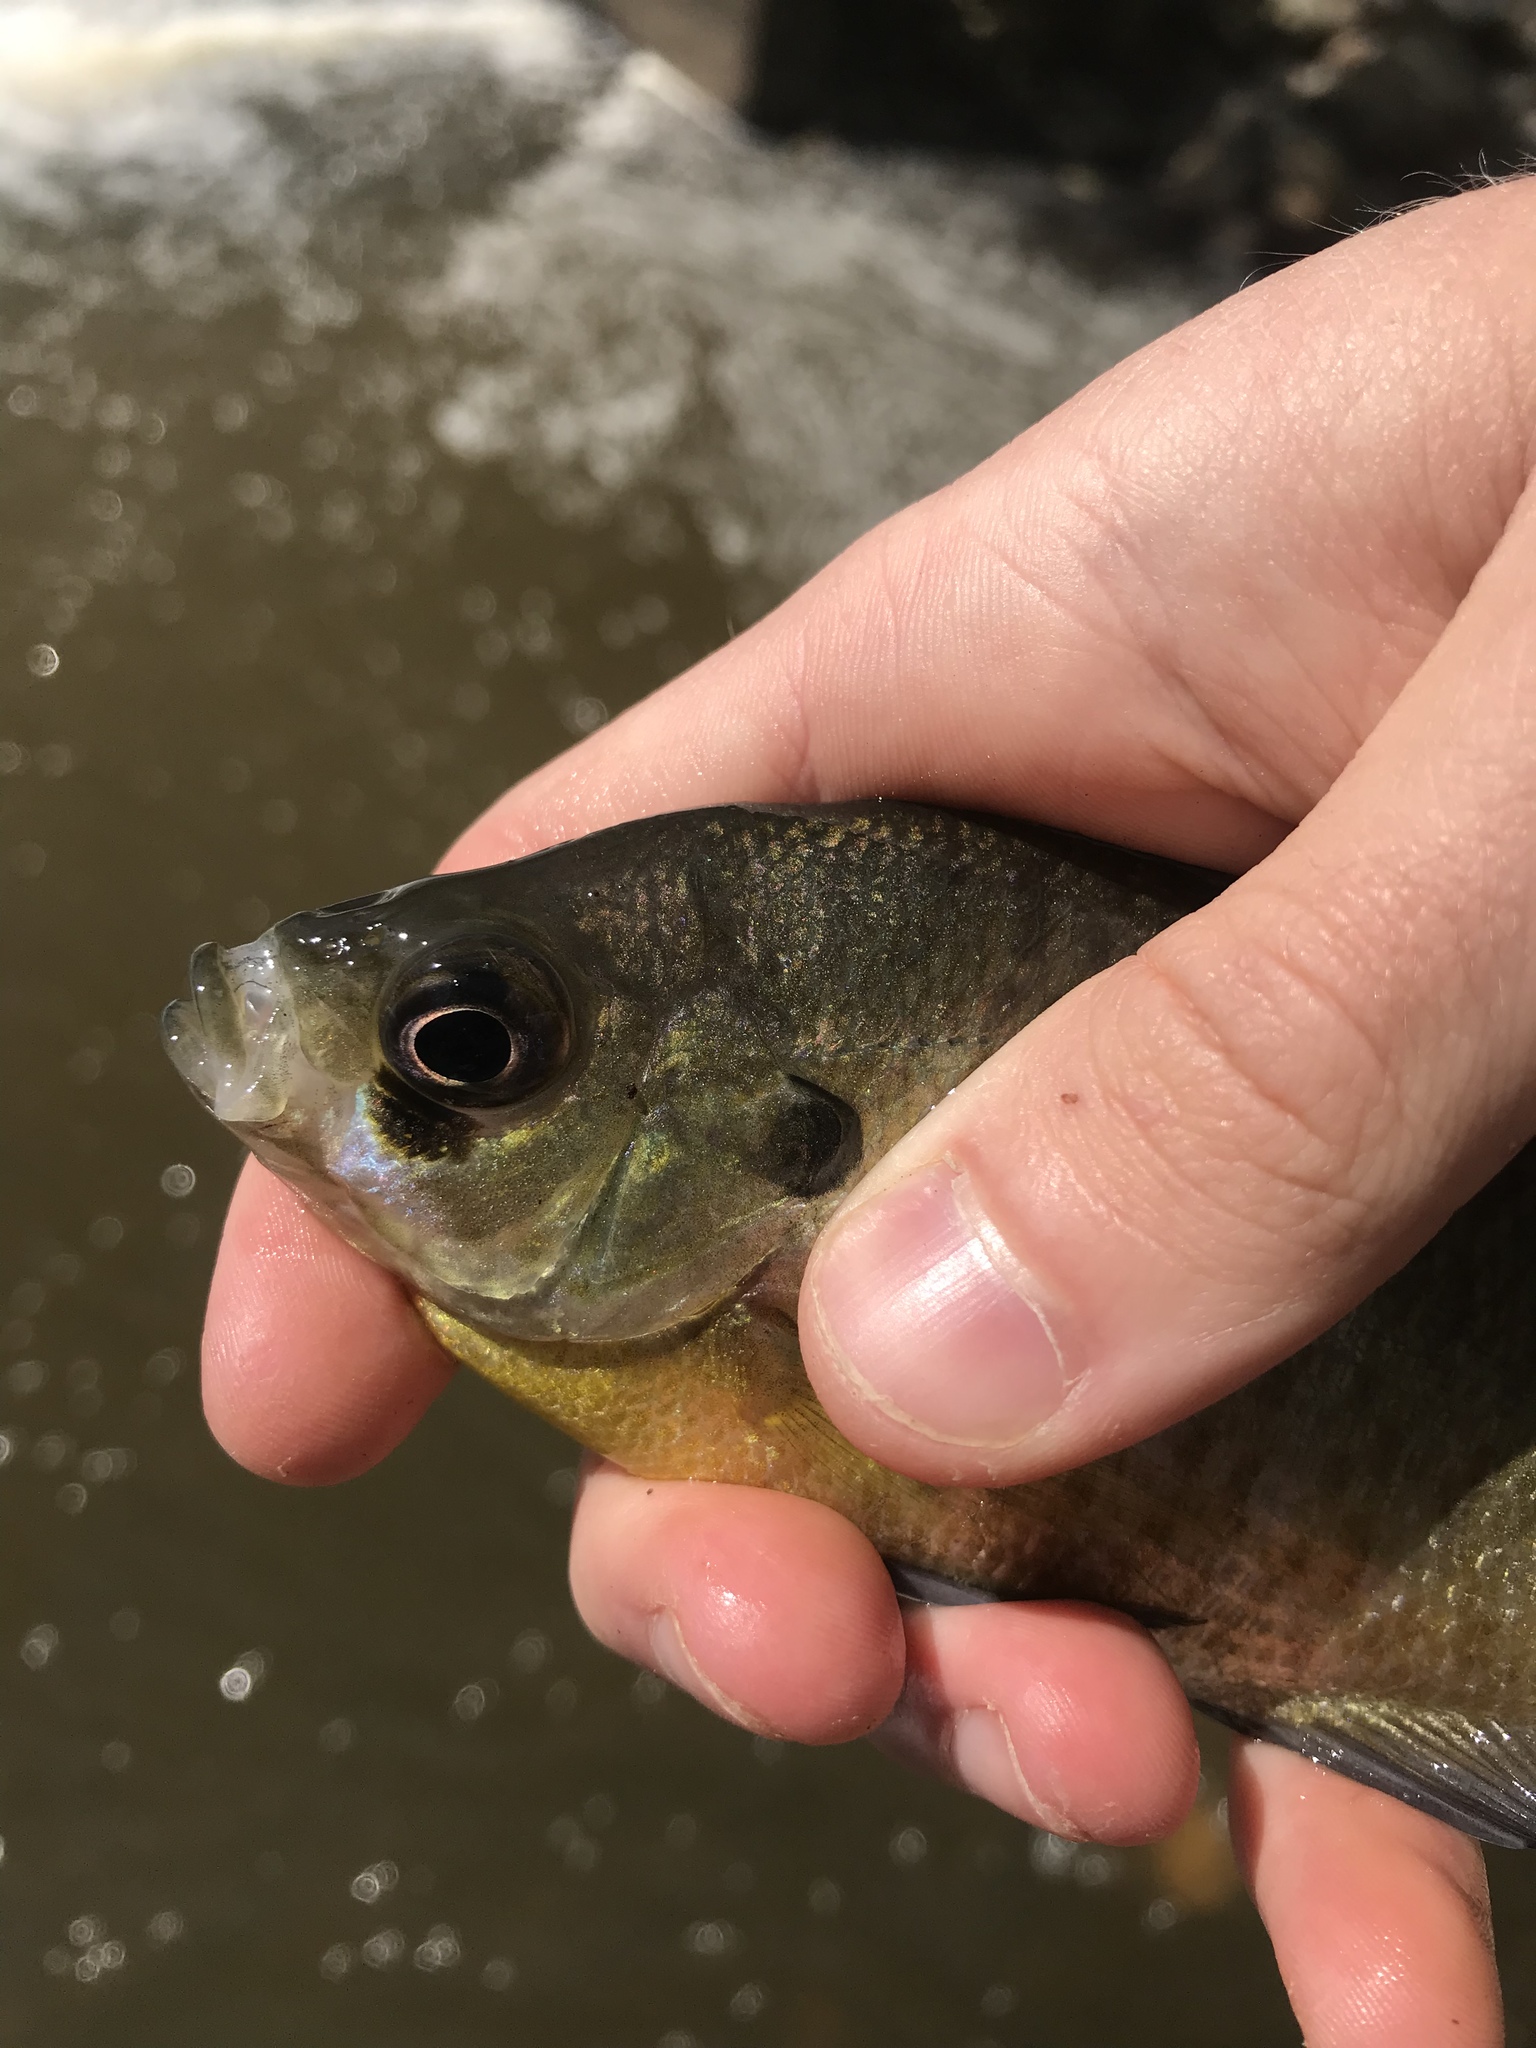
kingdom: Animalia
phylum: Chordata
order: Perciformes
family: Centrarchidae
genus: Lepomis
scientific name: Lepomis macrochirus
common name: Bluegill
